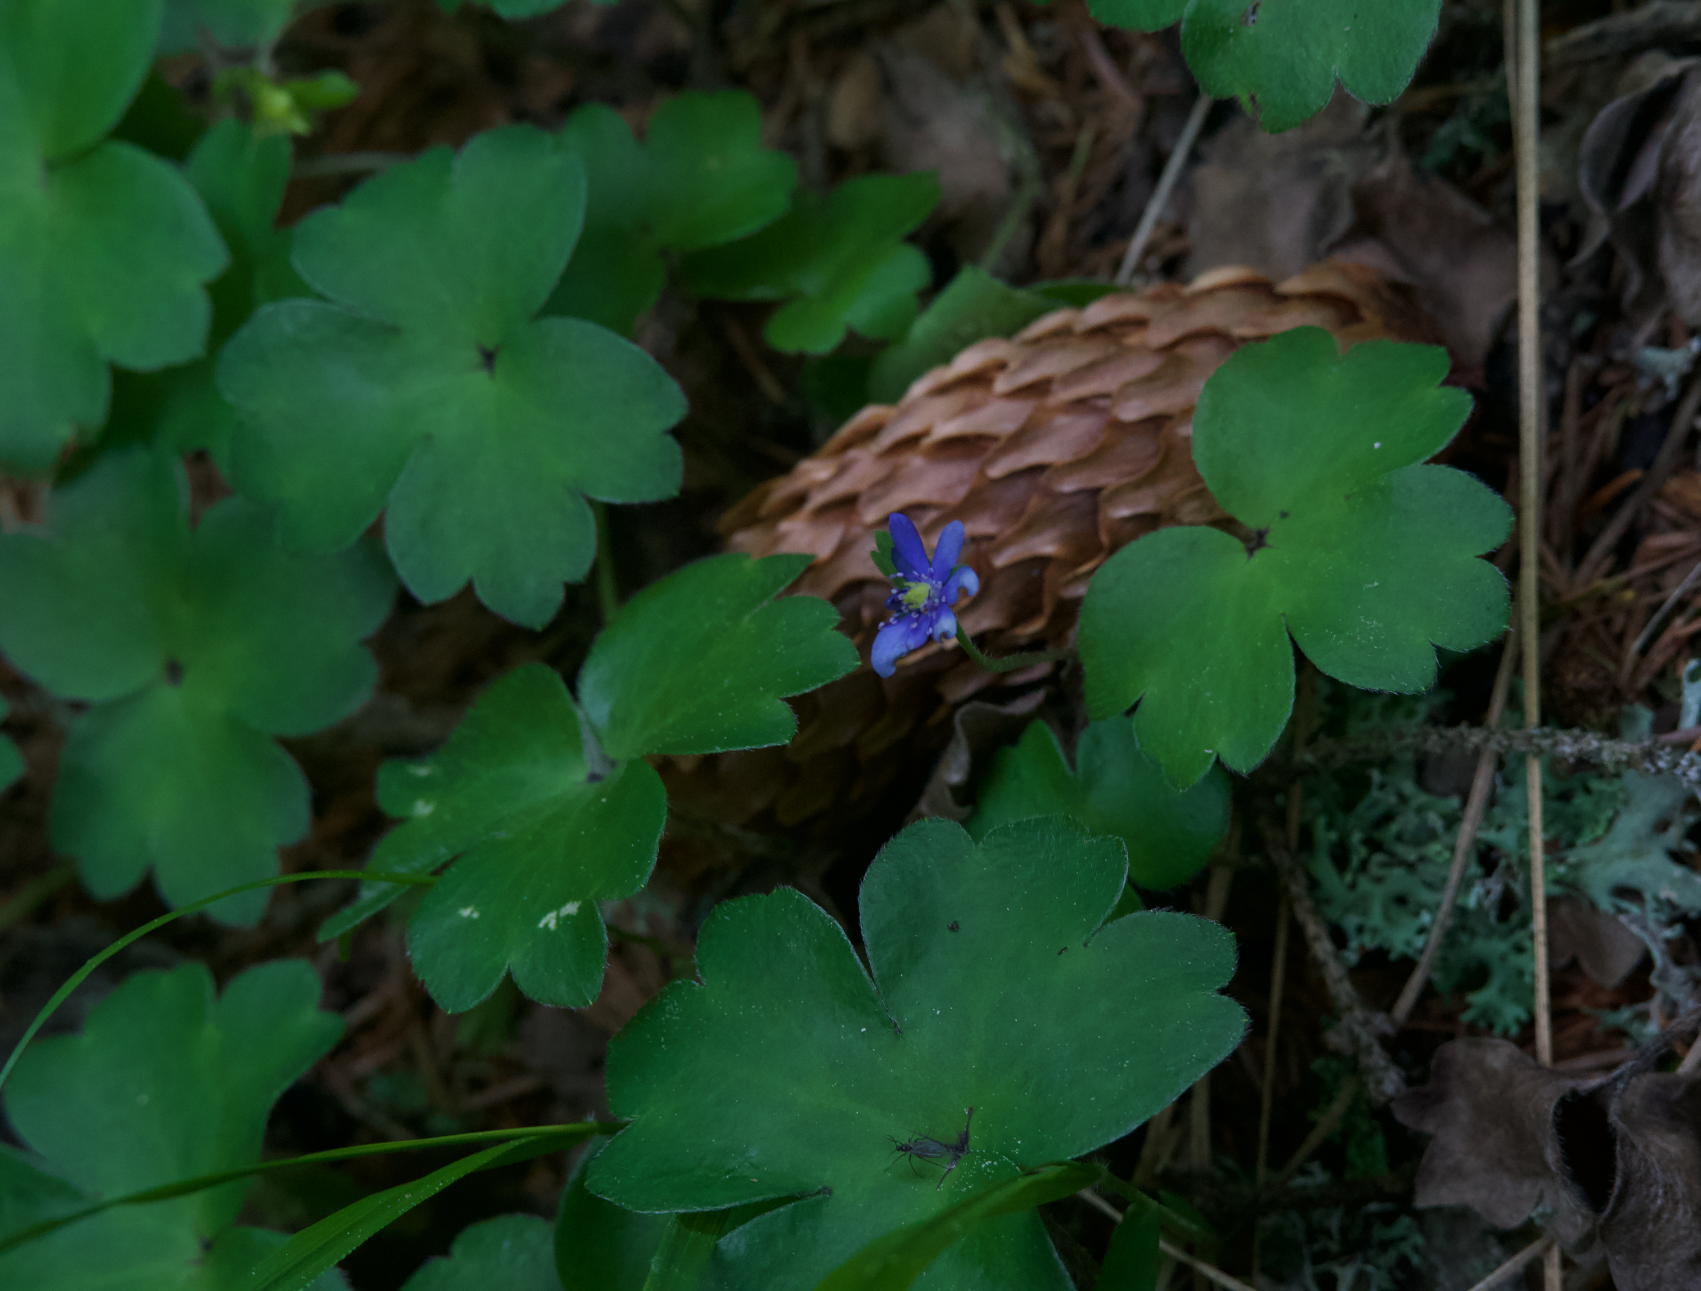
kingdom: Plantae
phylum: Tracheophyta
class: Magnoliopsida
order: Ranunculales
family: Ranunculaceae
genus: Hepatica
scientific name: Hepatica transsilvanica
